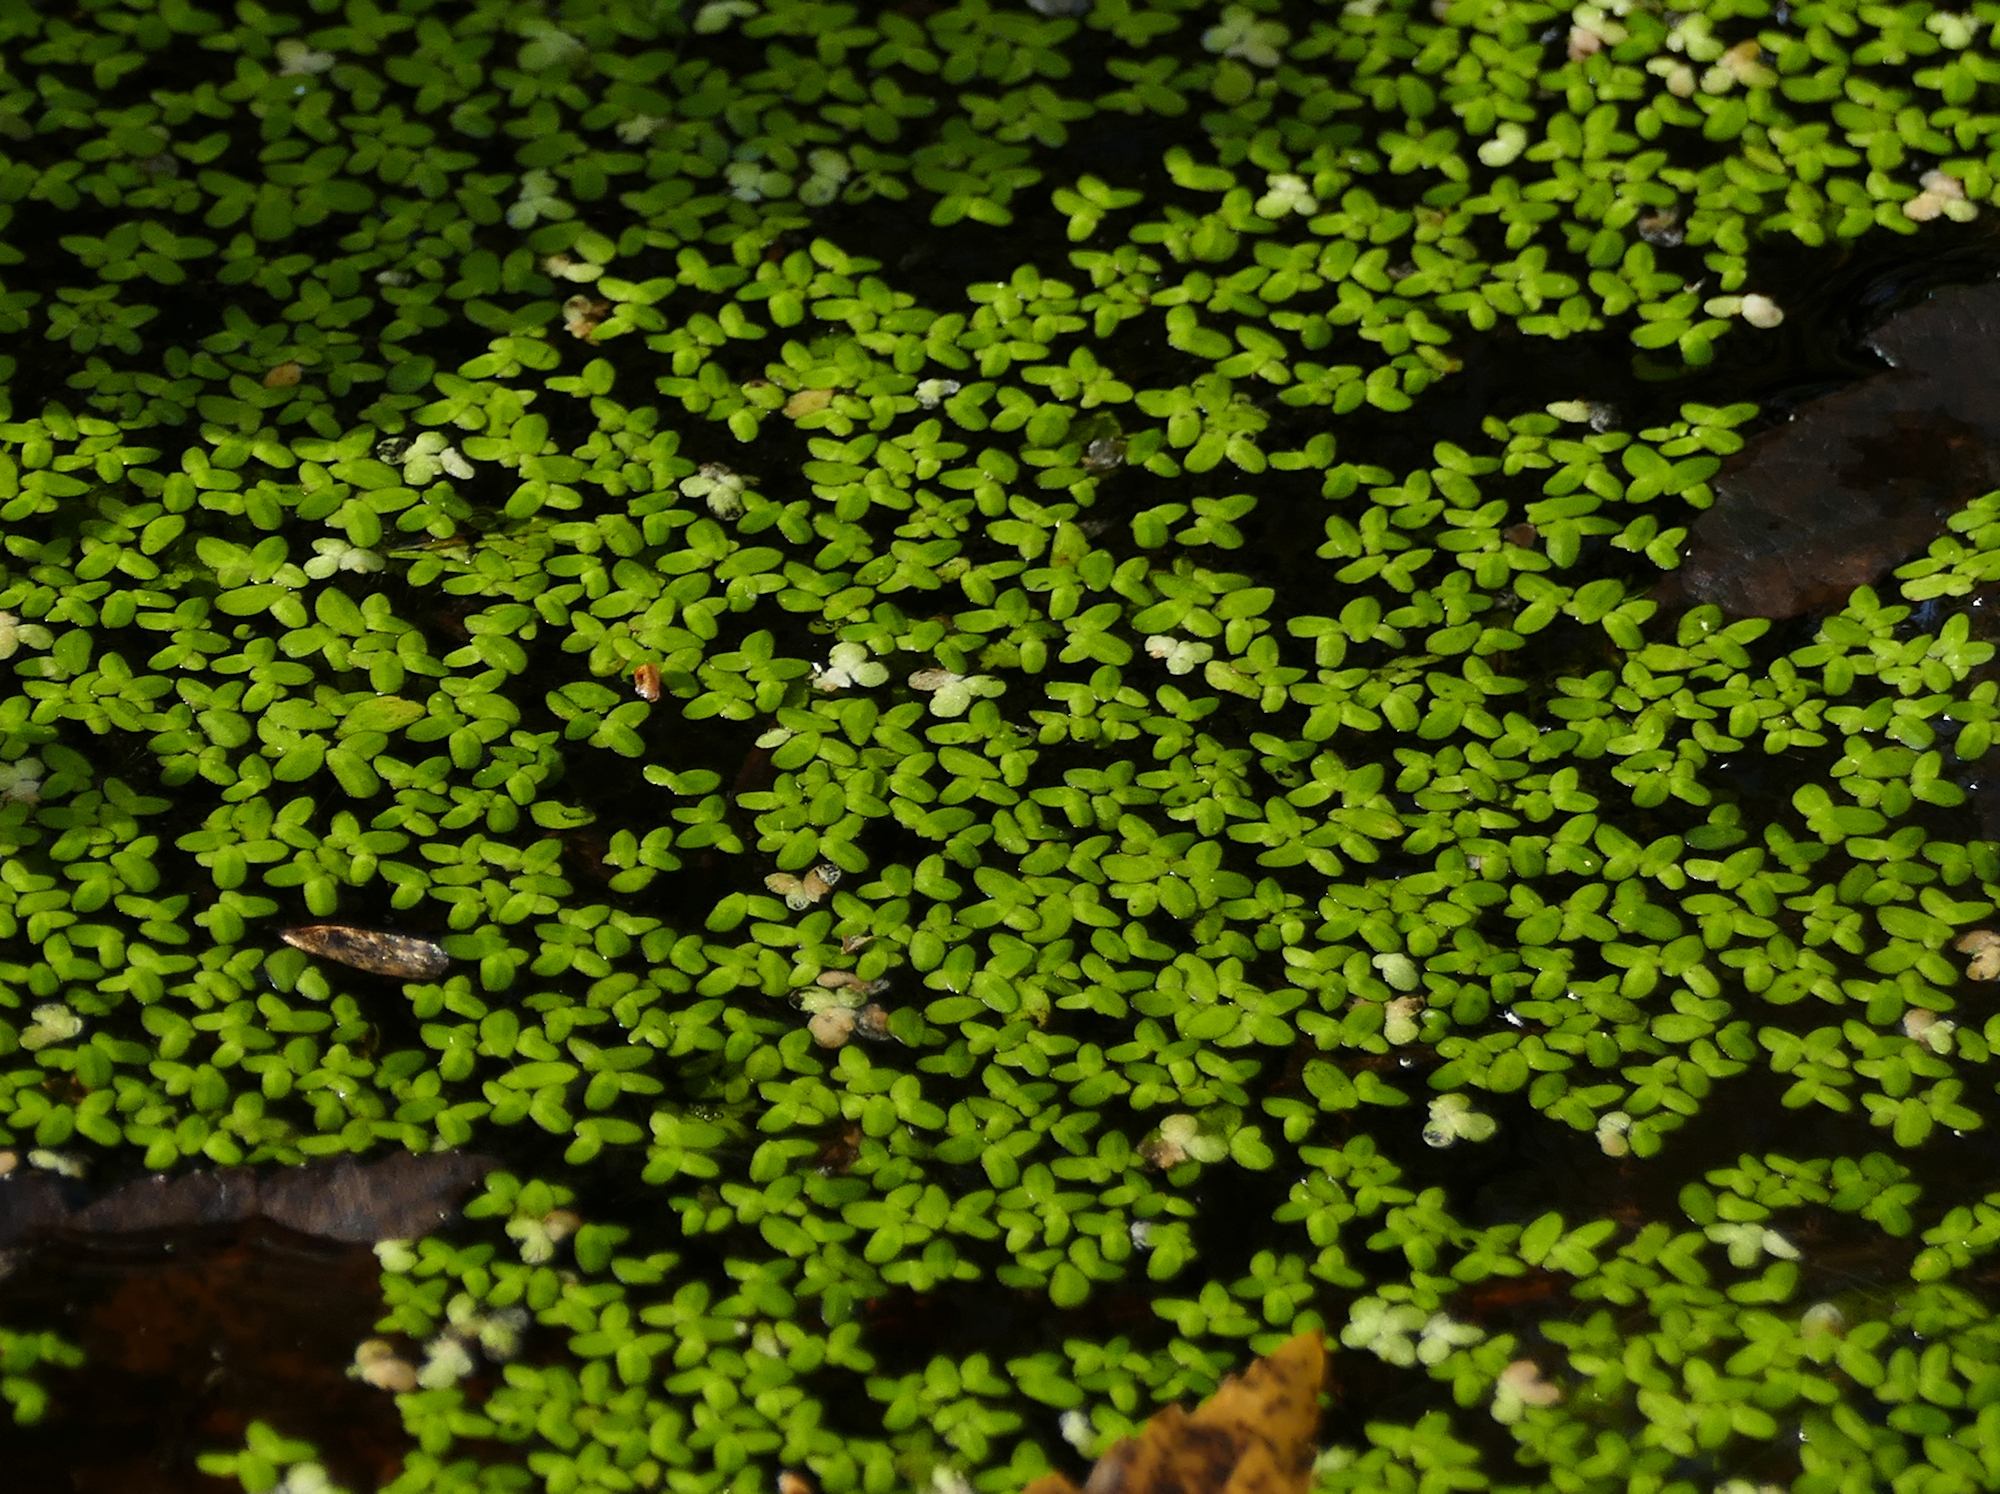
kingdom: Plantae
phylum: Tracheophyta
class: Liliopsida
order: Alismatales
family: Araceae
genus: Lemna
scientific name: Lemna minor
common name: Common duckweed
